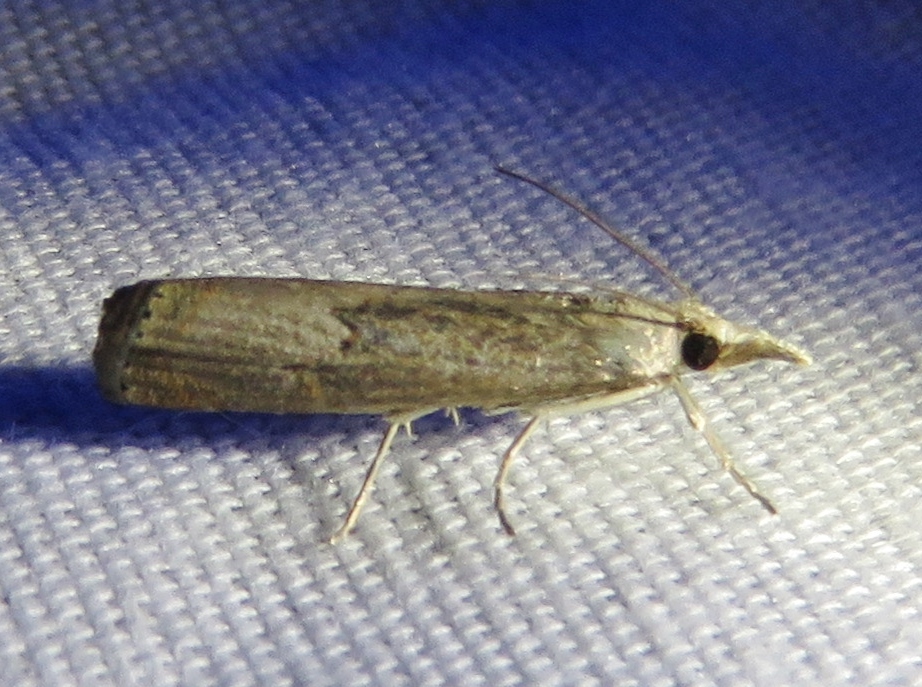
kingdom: Animalia
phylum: Arthropoda
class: Insecta
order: Lepidoptera
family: Crambidae
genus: Parapediasia
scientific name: Parapediasia teterellus
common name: Bluegrass webworm moth
